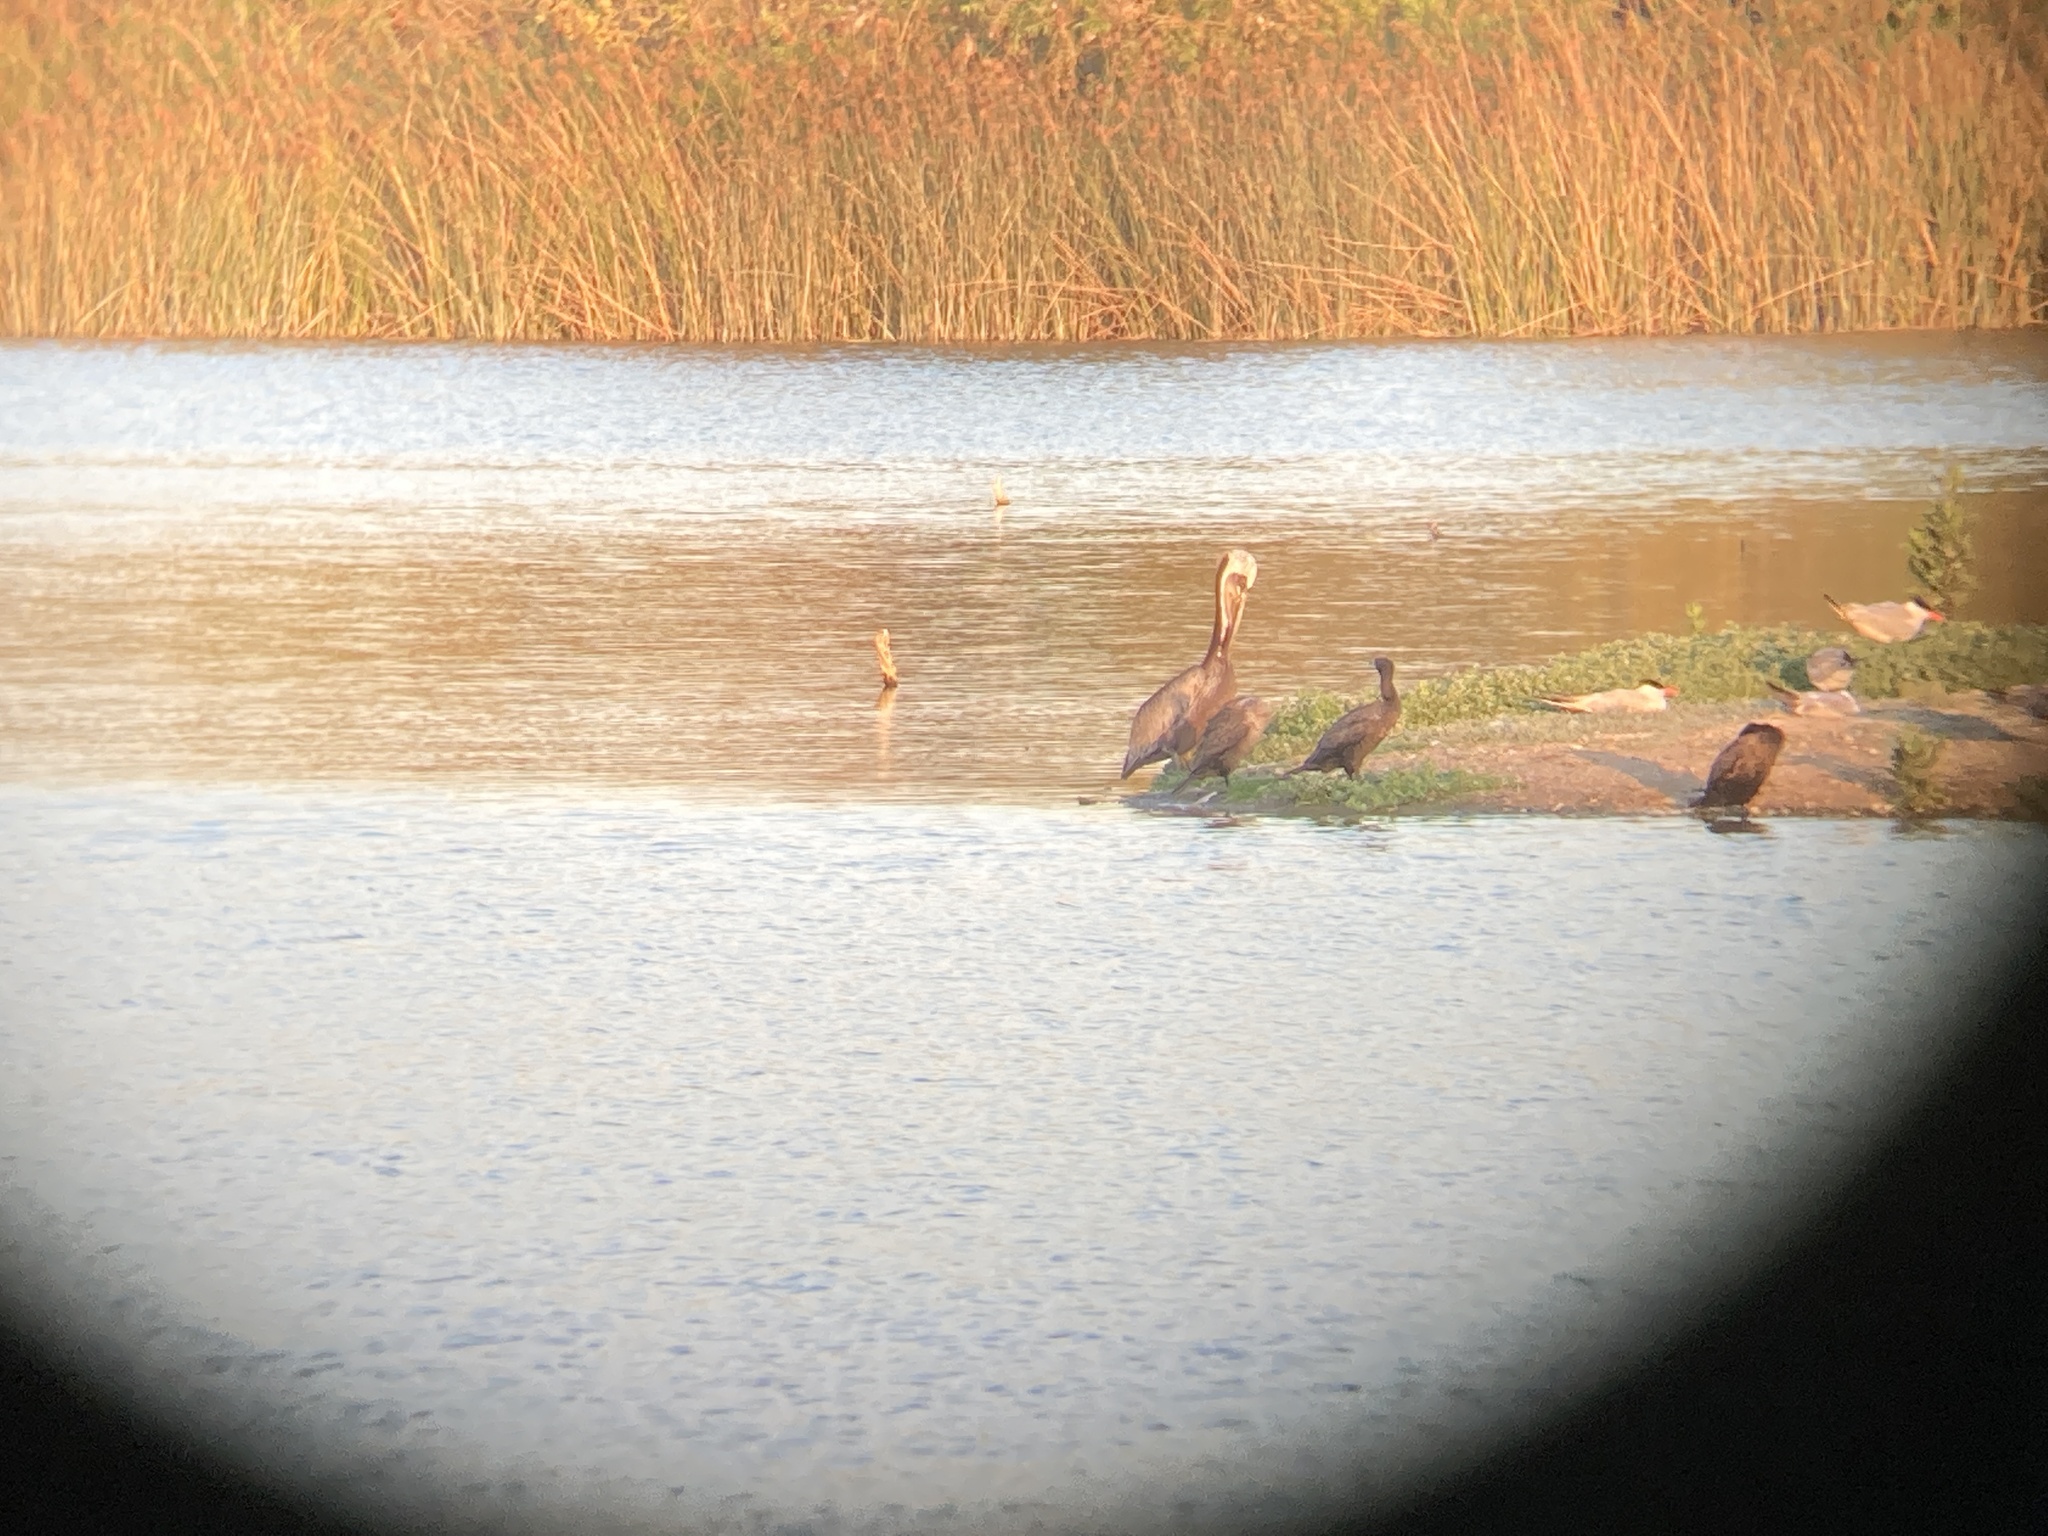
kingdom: Animalia
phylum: Chordata
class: Aves
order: Pelecaniformes
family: Pelecanidae
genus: Pelecanus
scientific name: Pelecanus occidentalis
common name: Brown pelican
